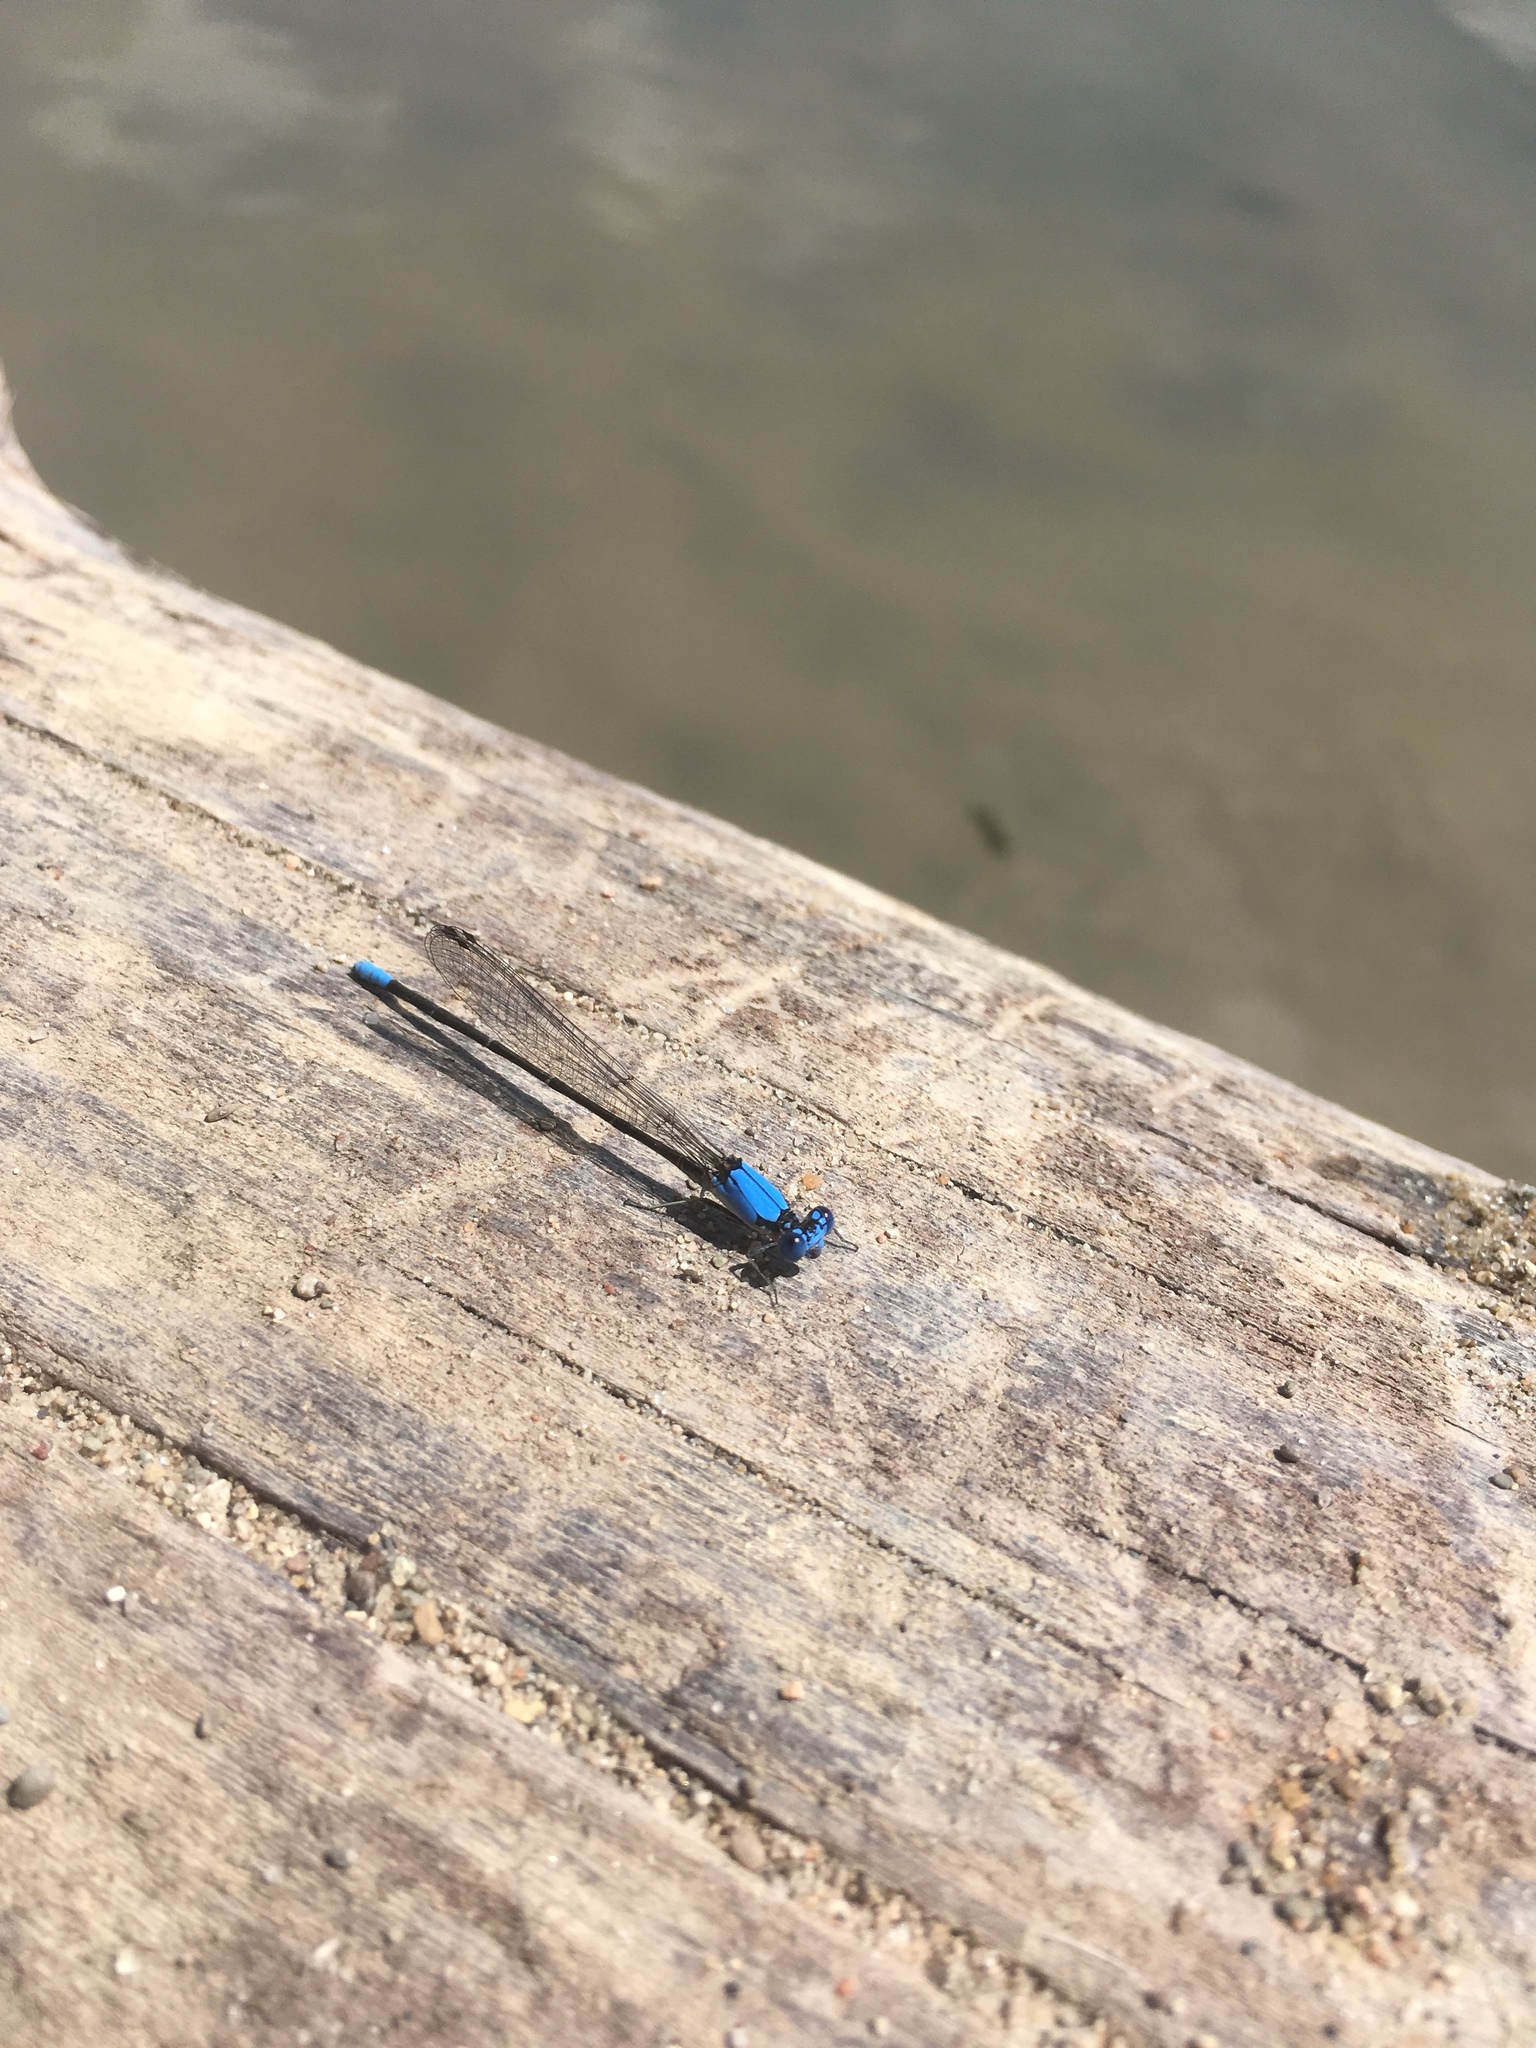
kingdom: Animalia
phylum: Arthropoda
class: Insecta
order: Odonata
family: Coenagrionidae
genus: Argia
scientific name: Argia apicalis
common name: Blue-fronted dancer
